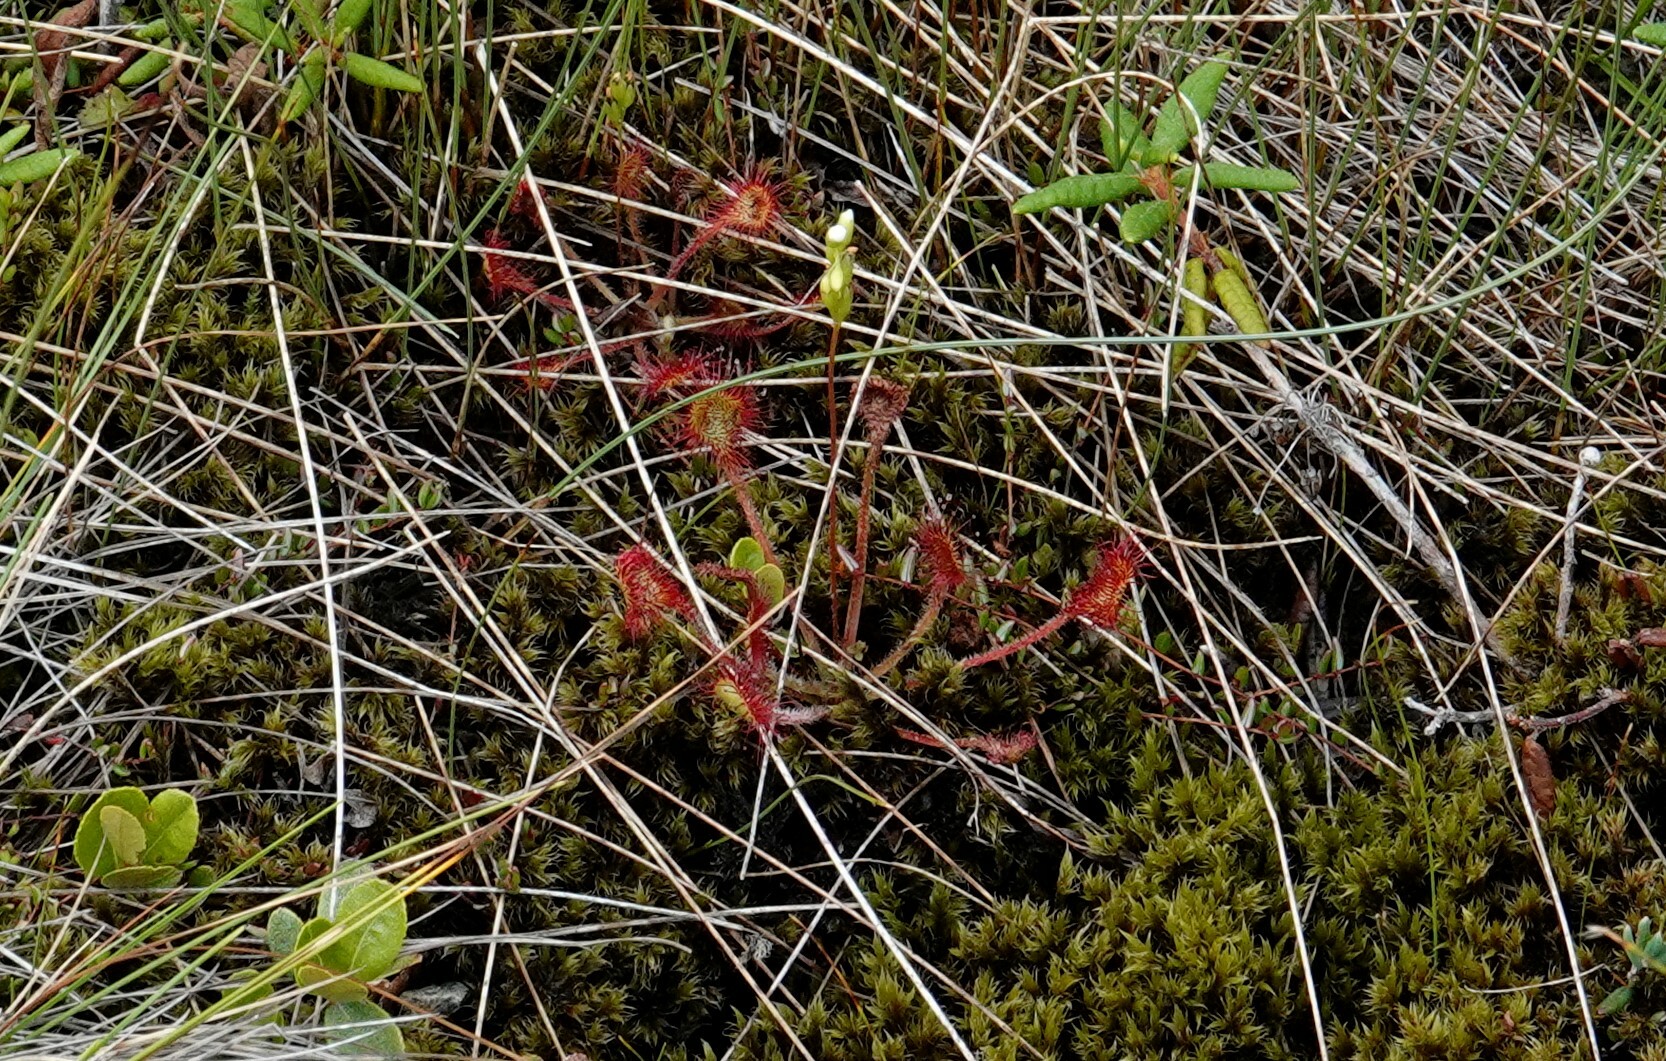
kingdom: Plantae
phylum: Tracheophyta
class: Magnoliopsida
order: Caryophyllales
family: Droseraceae
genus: Drosera
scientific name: Drosera rotundifolia
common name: Round-leaved sundew
